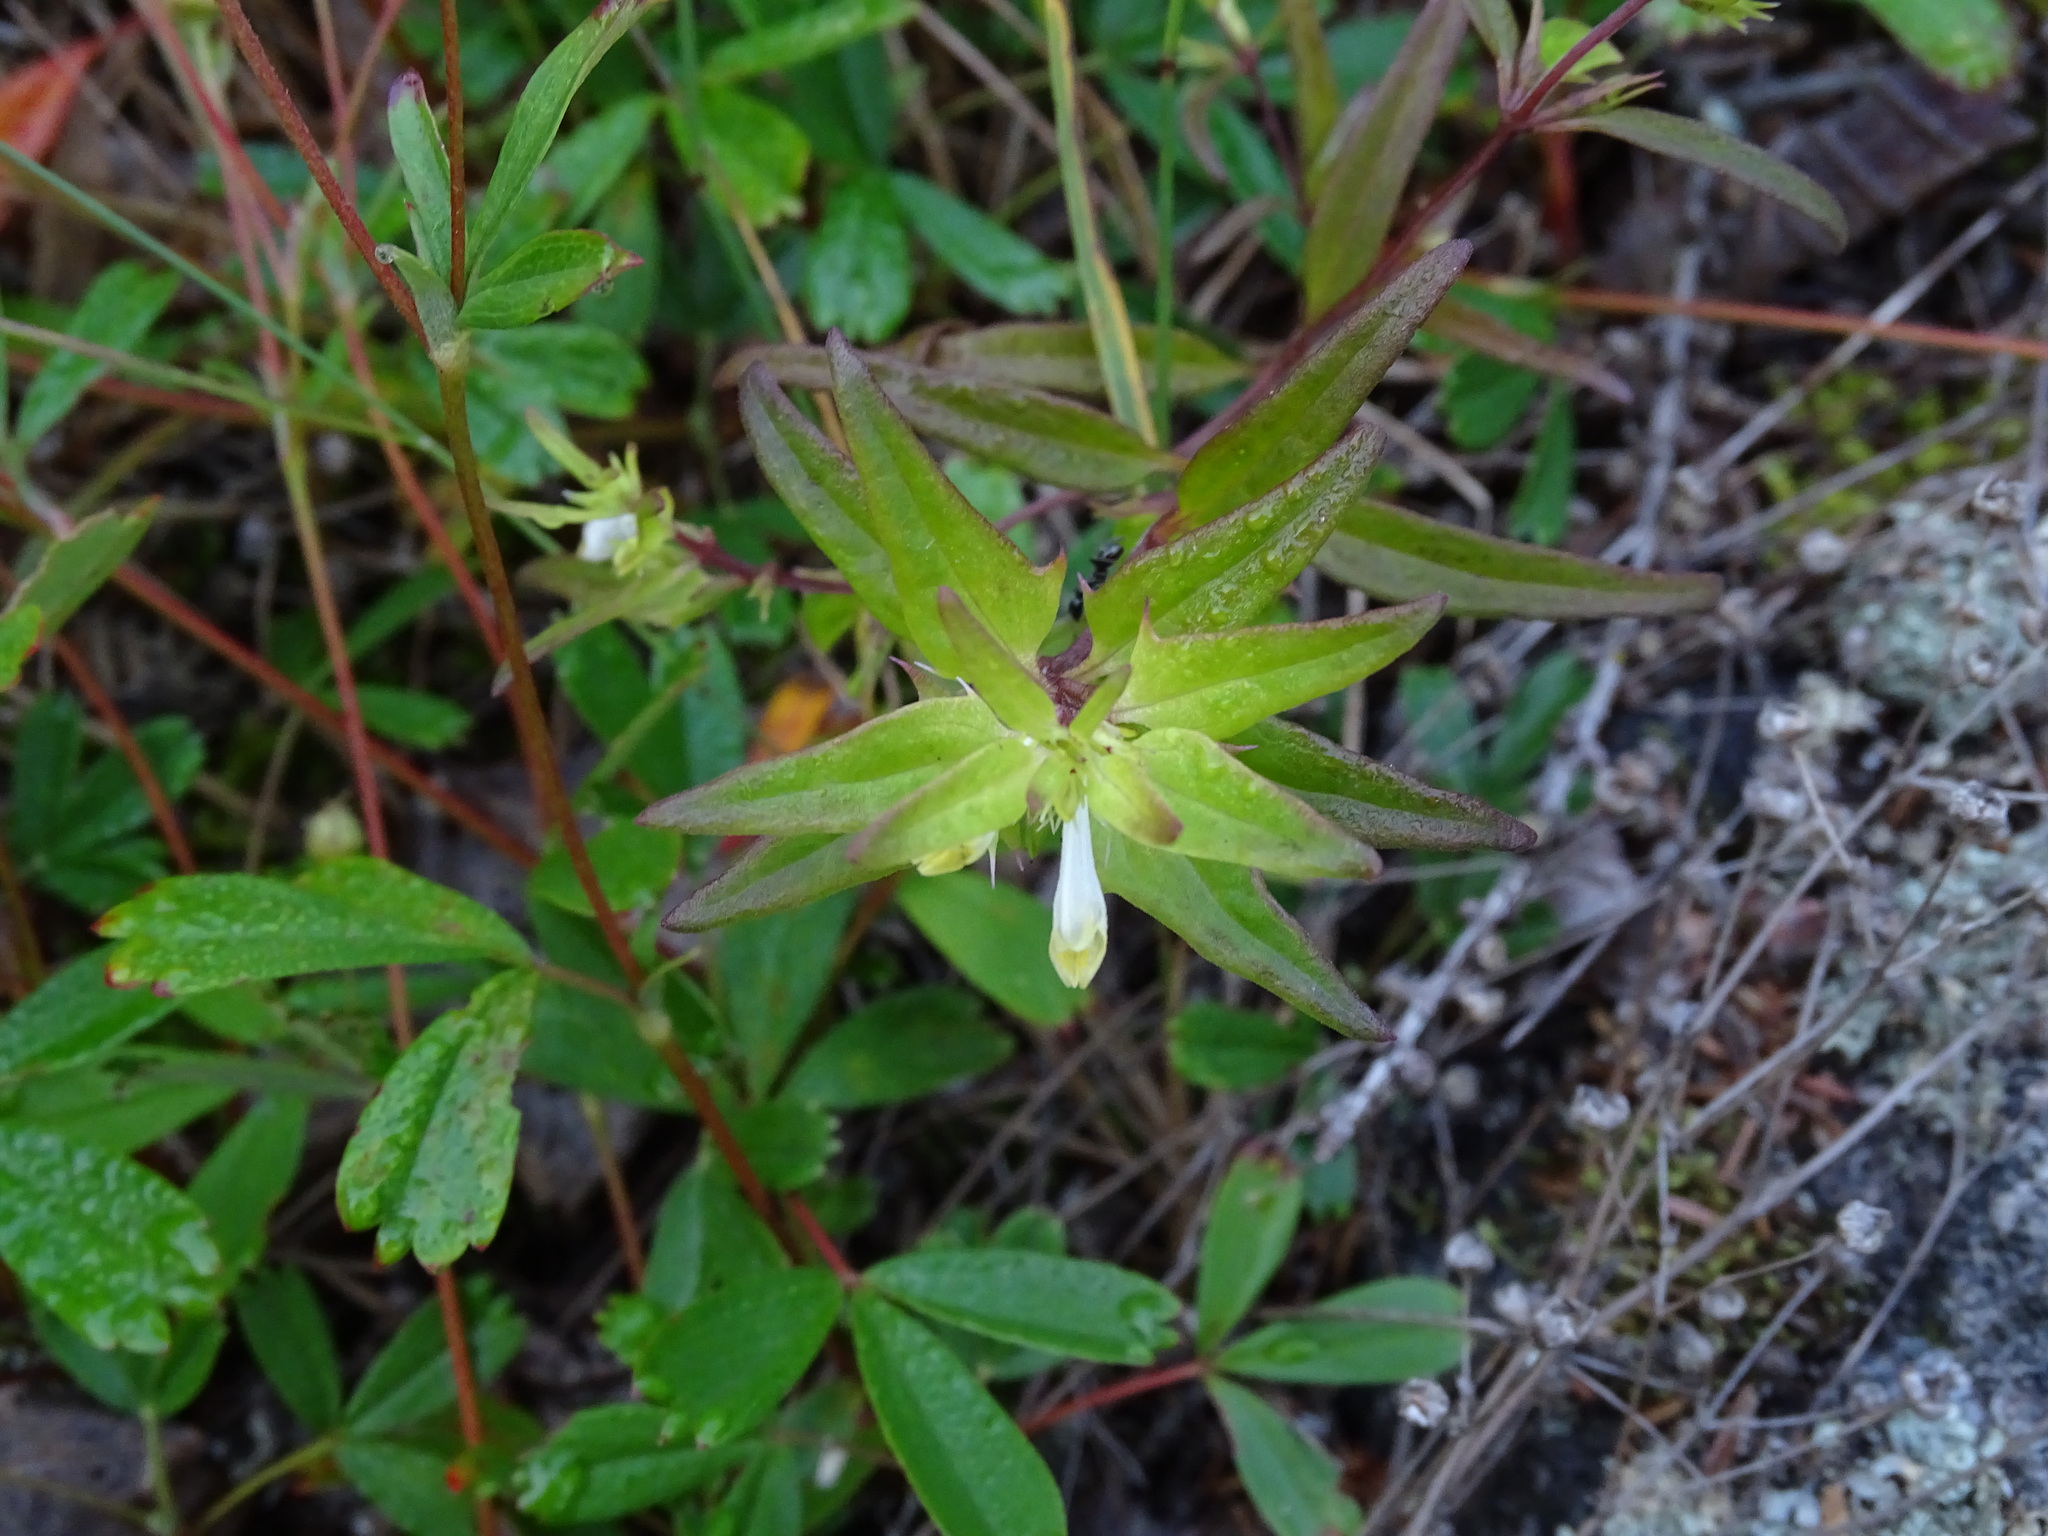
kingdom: Plantae
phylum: Tracheophyta
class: Magnoliopsida
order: Lamiales
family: Orobanchaceae
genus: Melampyrum
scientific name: Melampyrum lineare
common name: American cow-wheat
